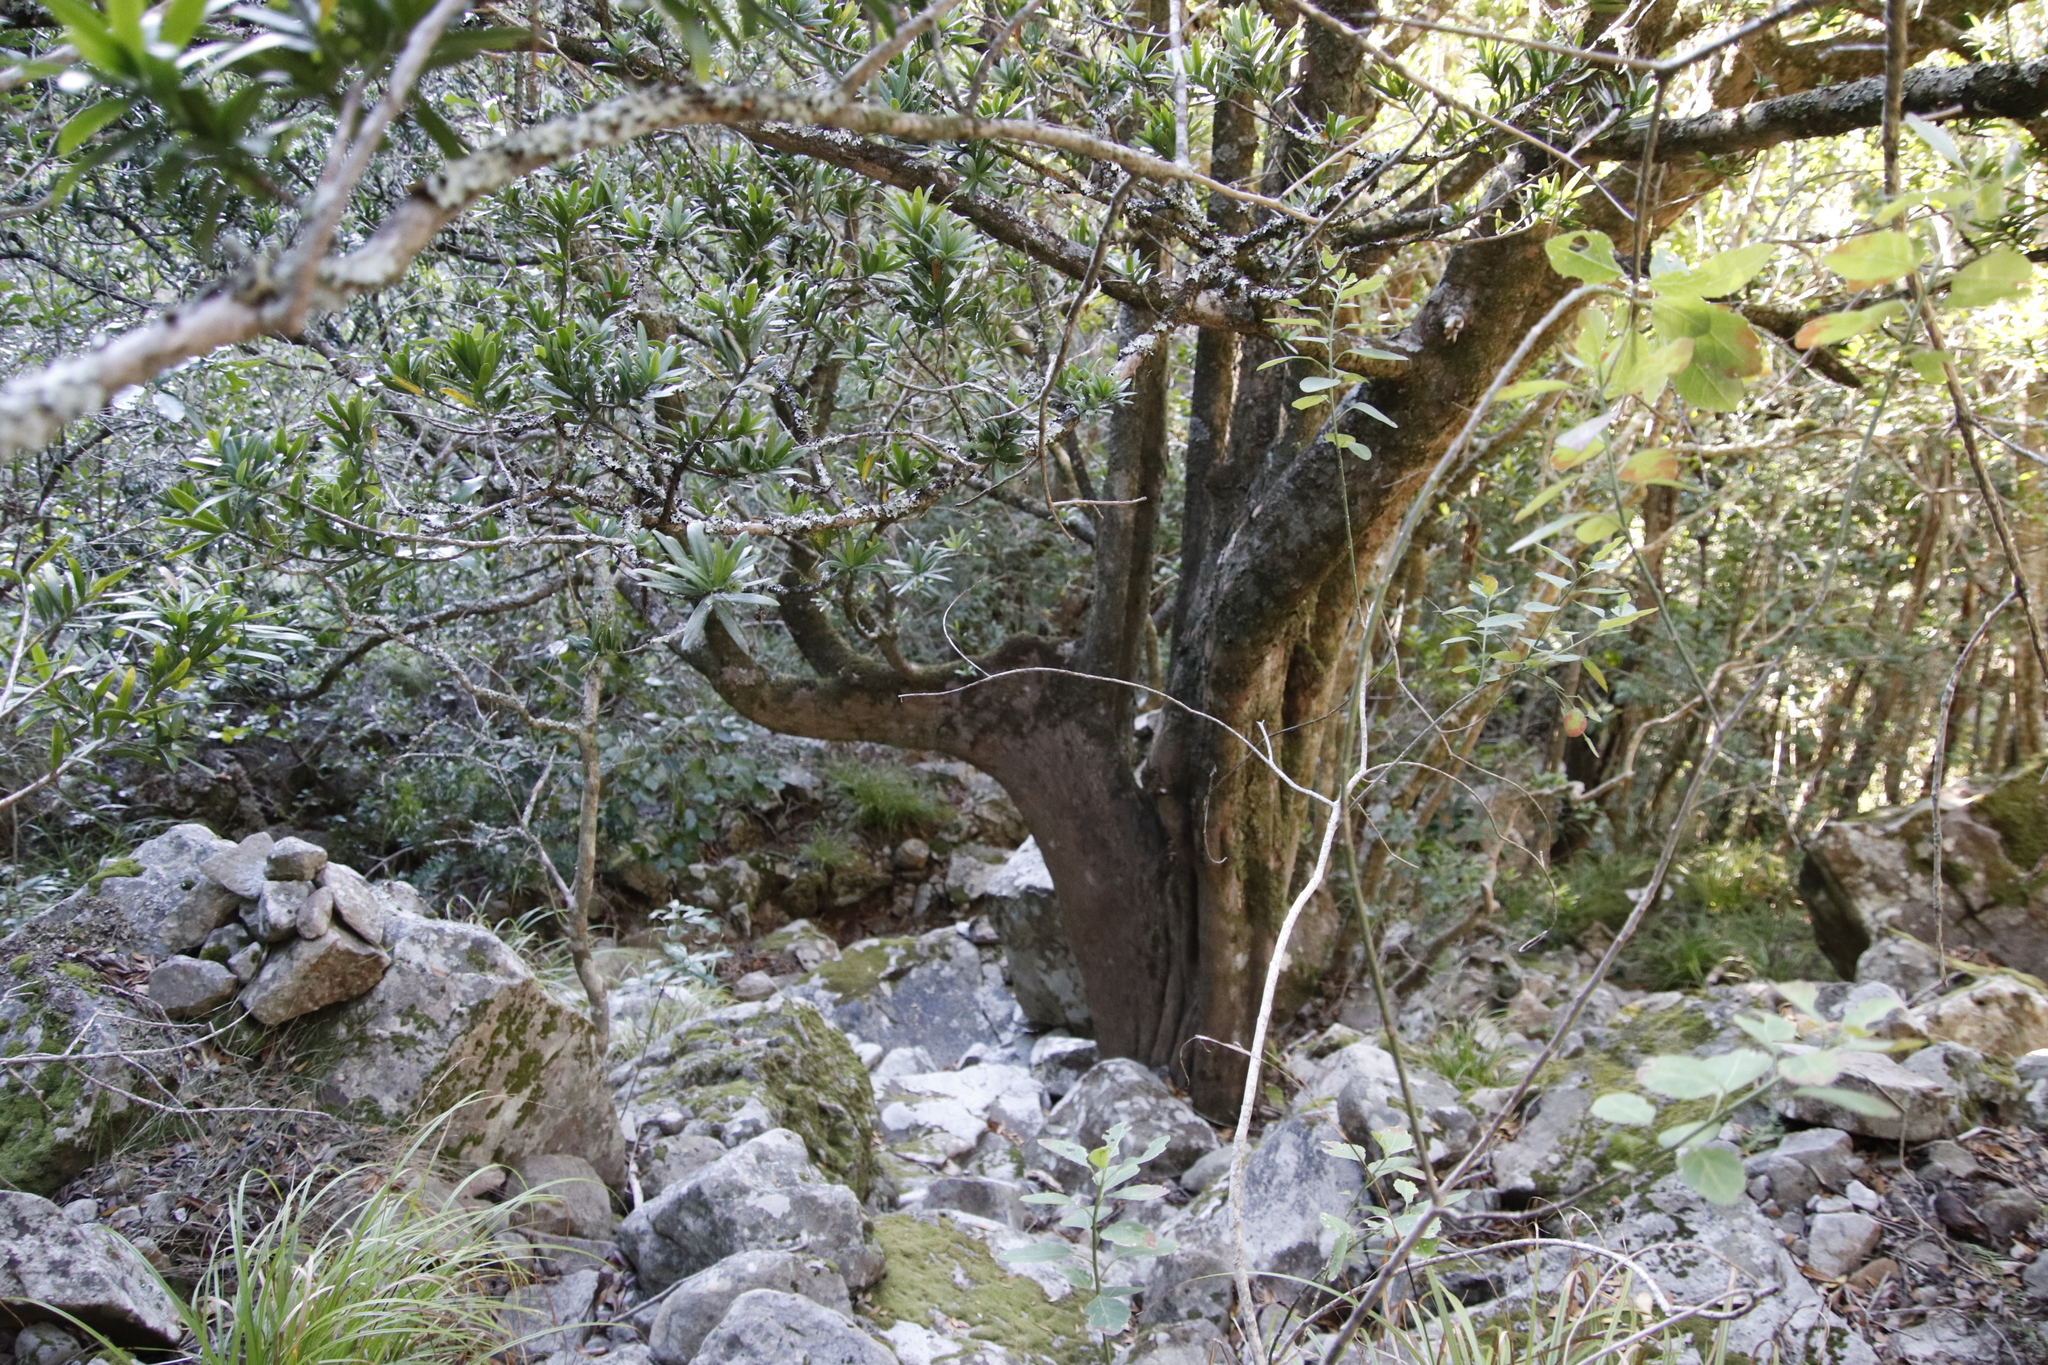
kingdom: Plantae
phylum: Tracheophyta
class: Pinopsida
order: Pinales
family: Podocarpaceae
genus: Podocarpus
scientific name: Podocarpus latifolius
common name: True yellowwood
